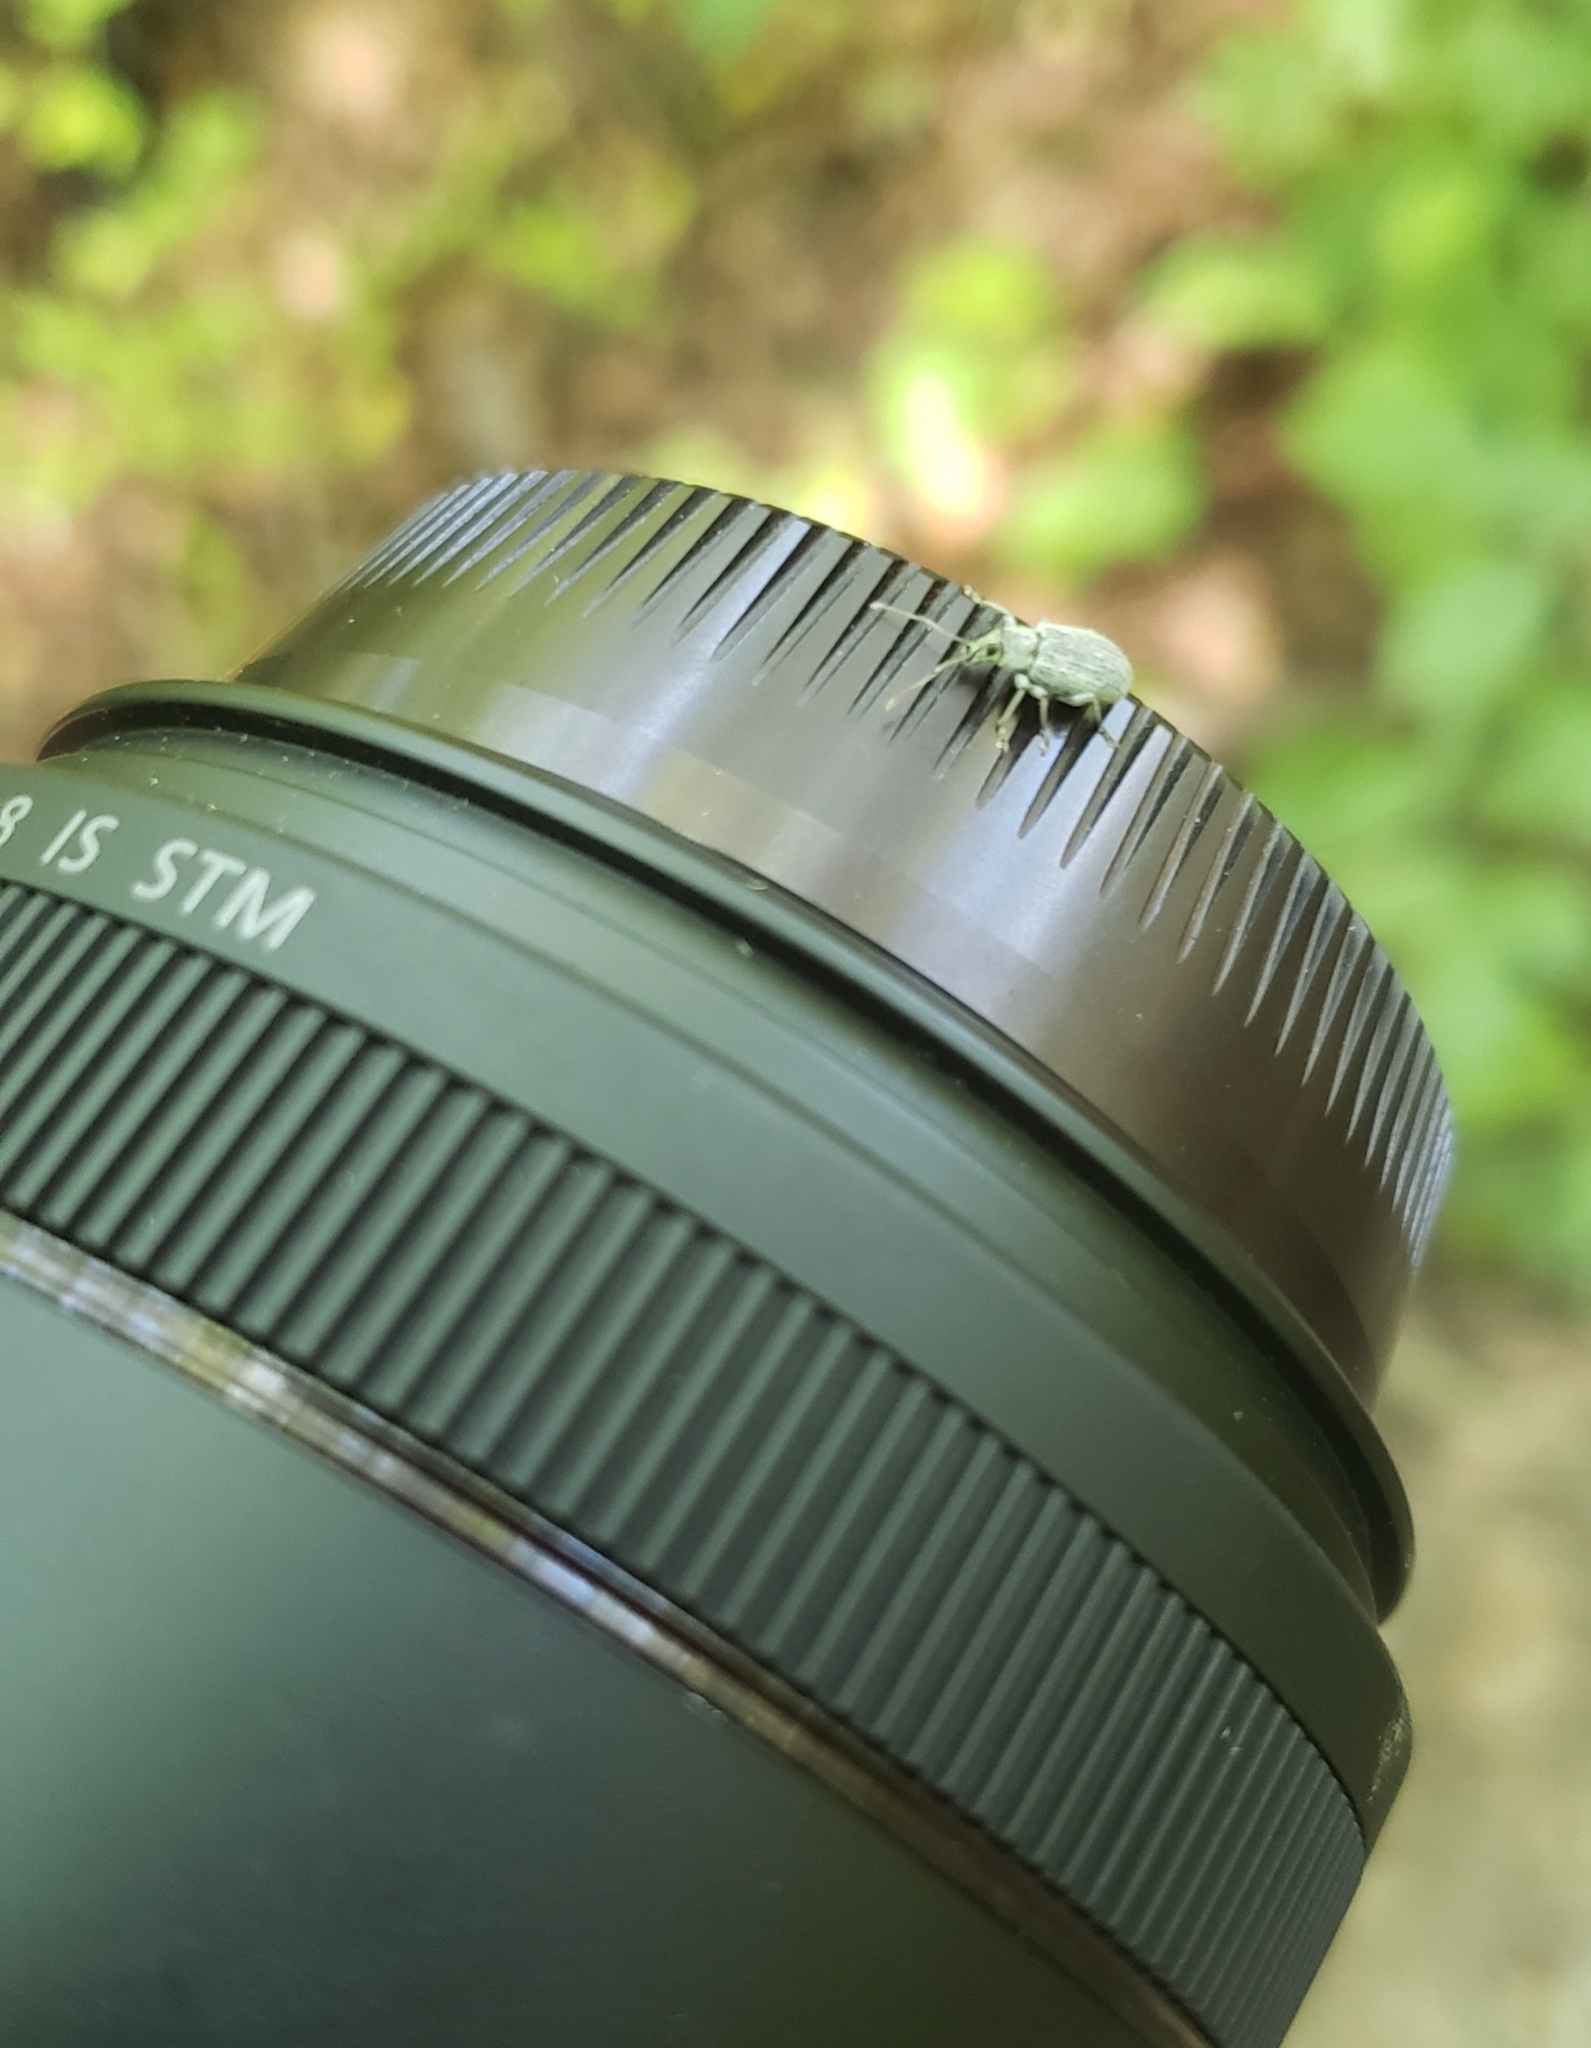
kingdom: Animalia
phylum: Arthropoda
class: Insecta
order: Coleoptera
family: Curculionidae
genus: Cyrtepistomus
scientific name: Cyrtepistomus castaneus
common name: Weevil
